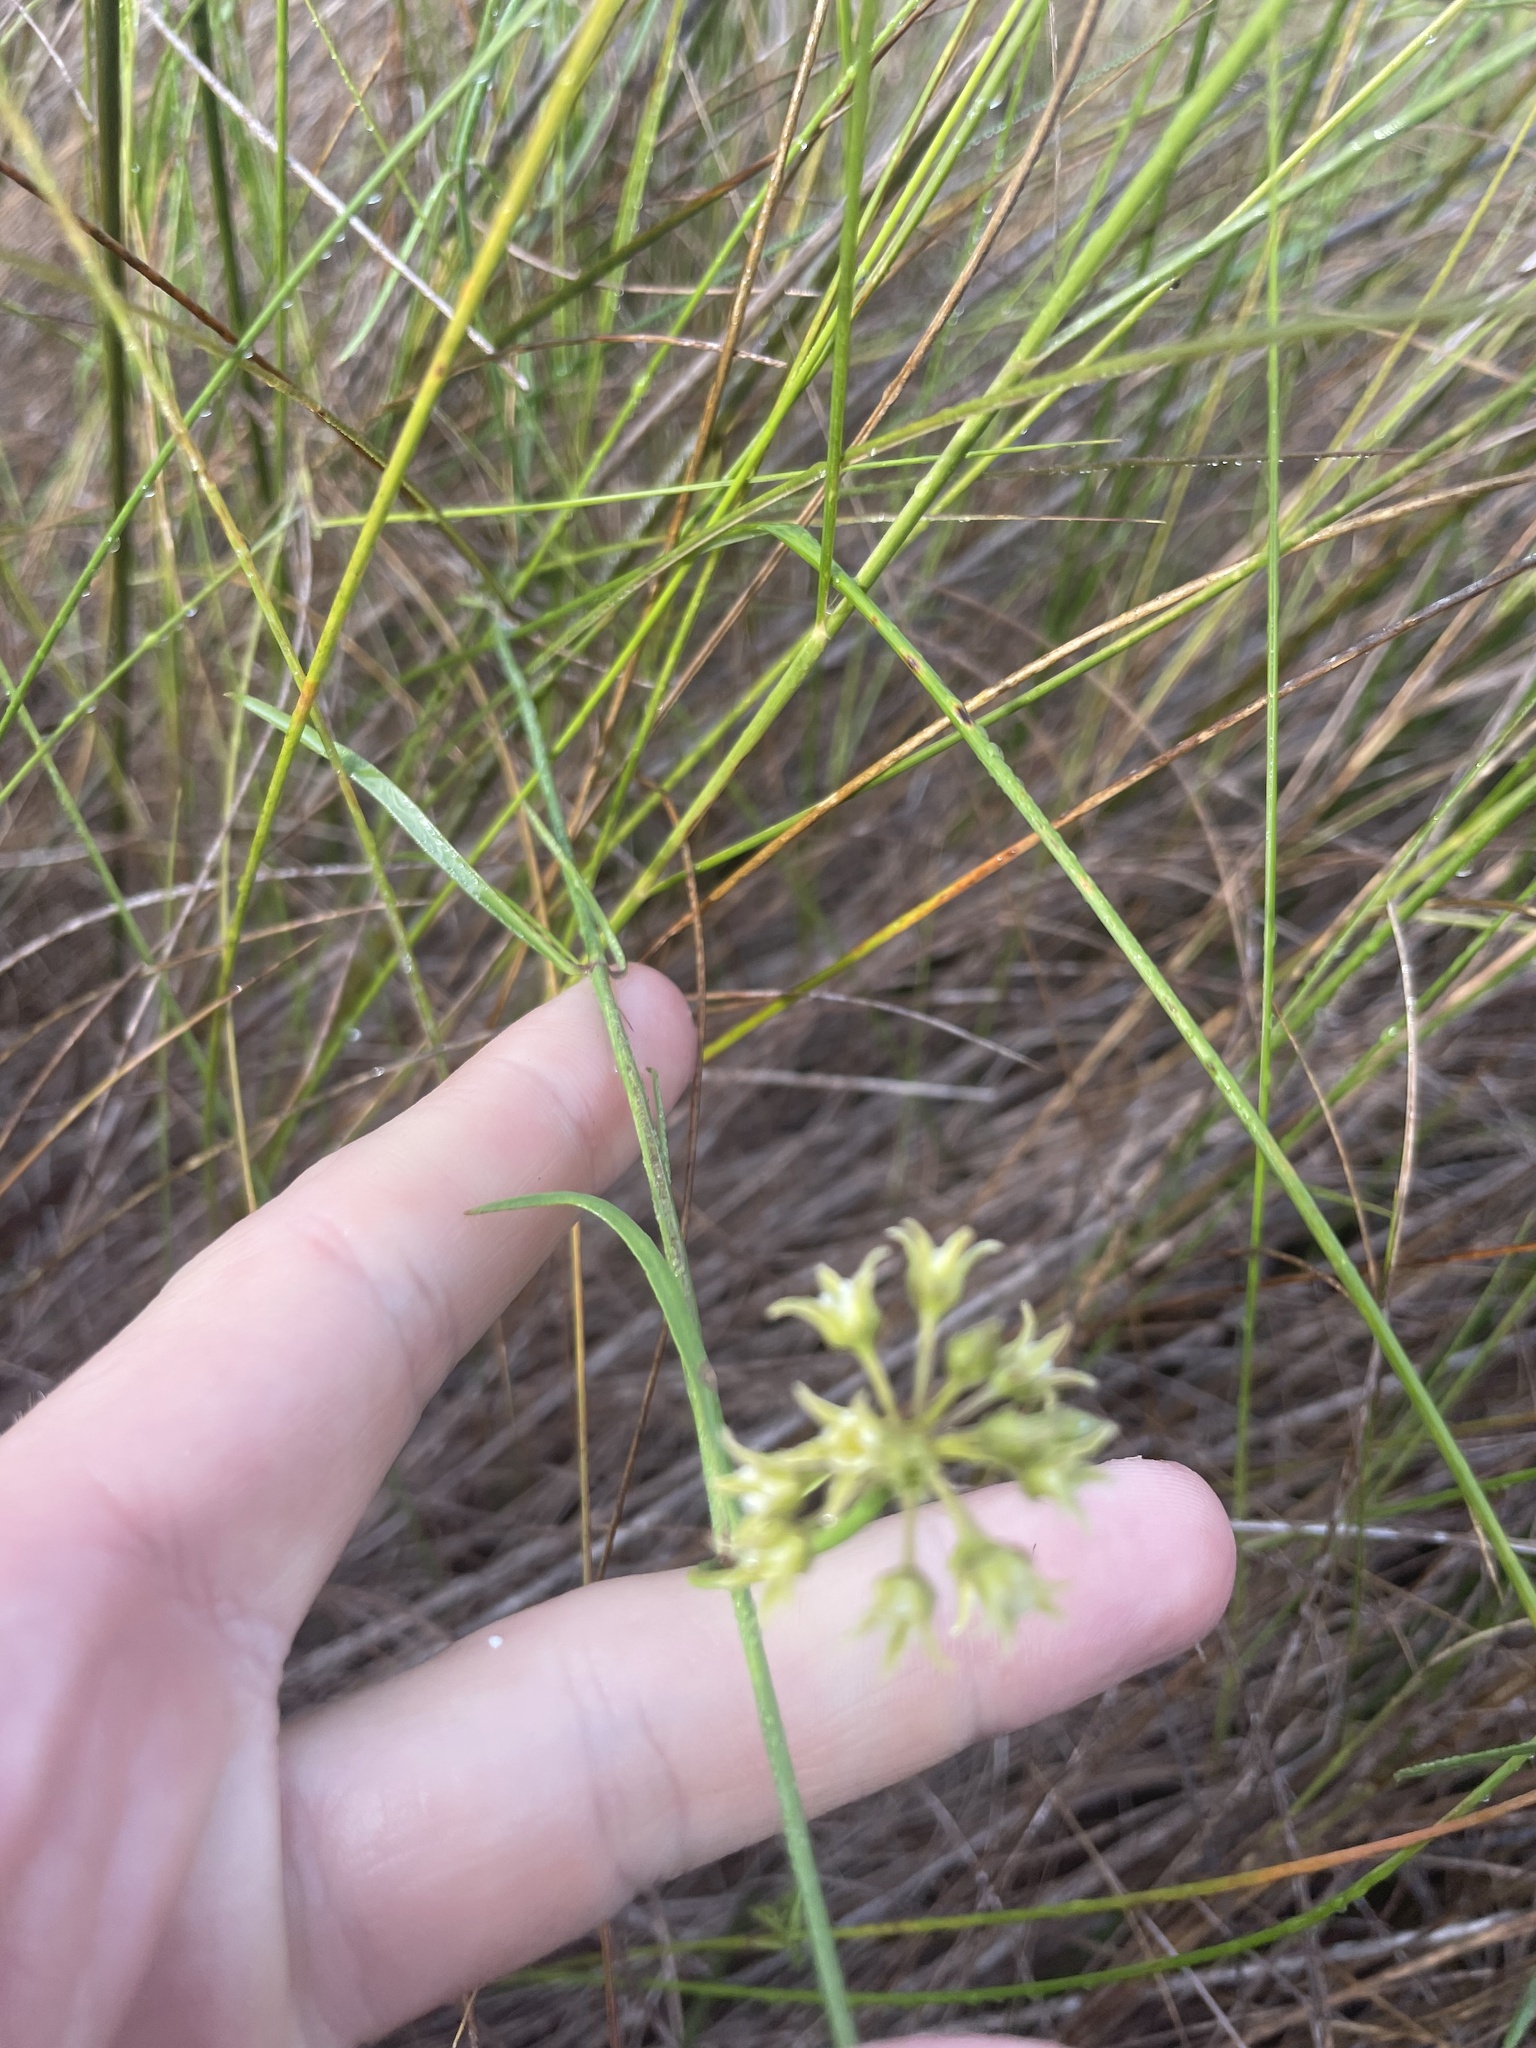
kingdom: Plantae
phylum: Tracheophyta
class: Magnoliopsida
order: Gentianales
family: Apocynaceae
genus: Pattalias
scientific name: Pattalias
